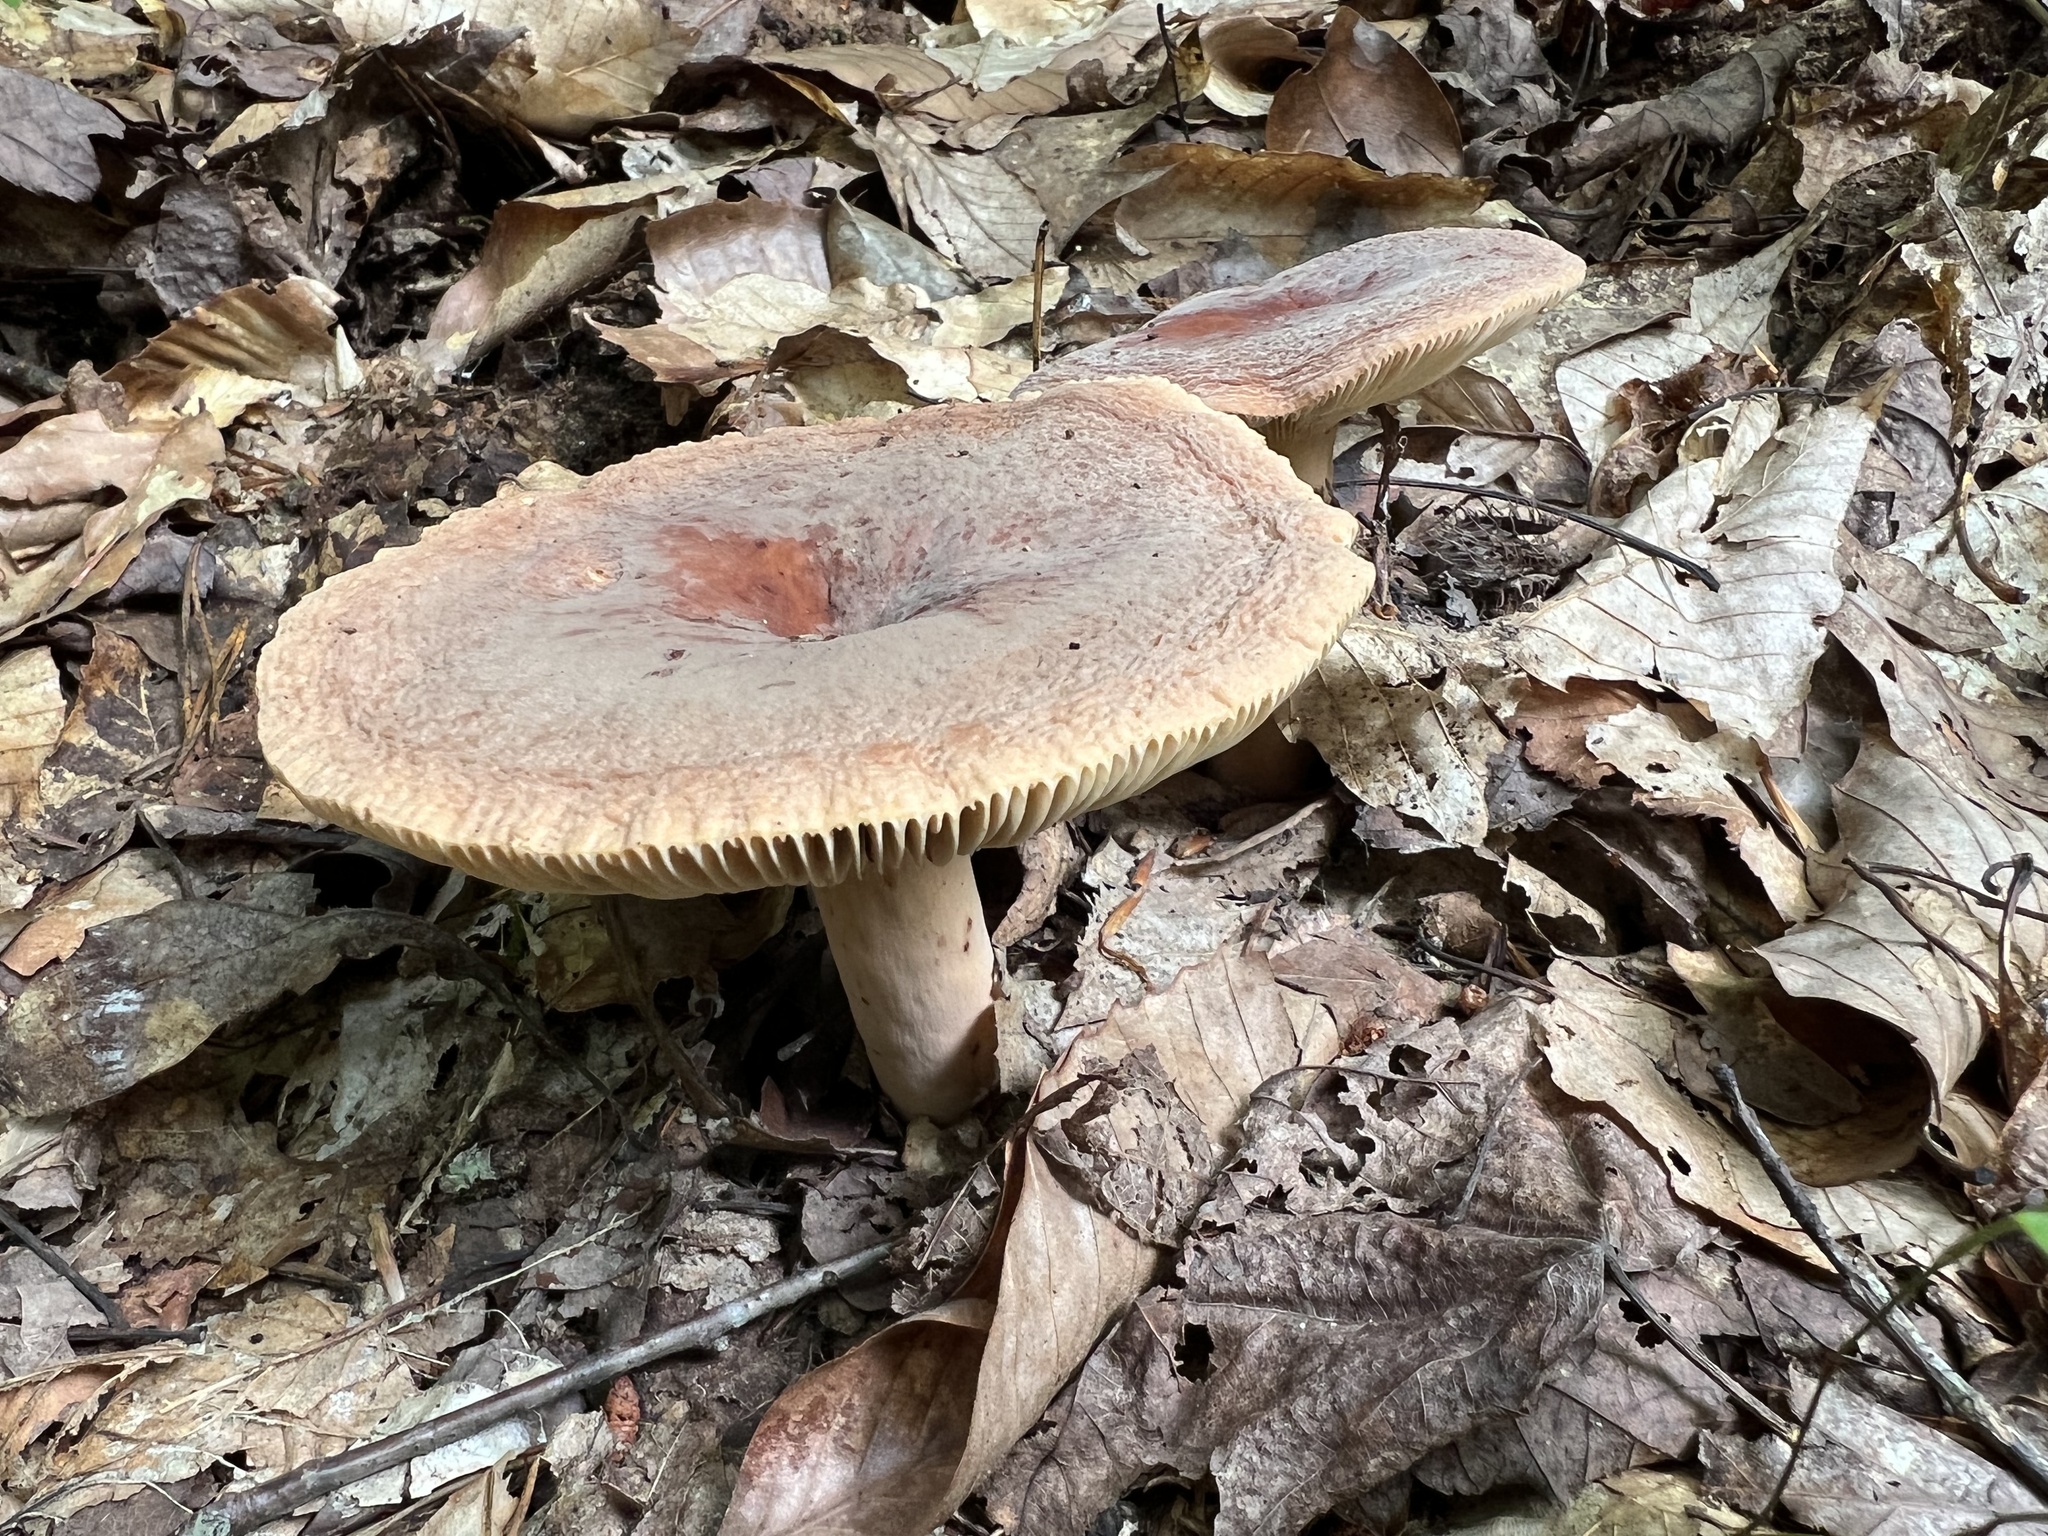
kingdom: Fungi
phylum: Basidiomycota
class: Agaricomycetes
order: Russulales
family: Russulaceae
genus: Lactarius
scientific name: Lactarius corrugis
